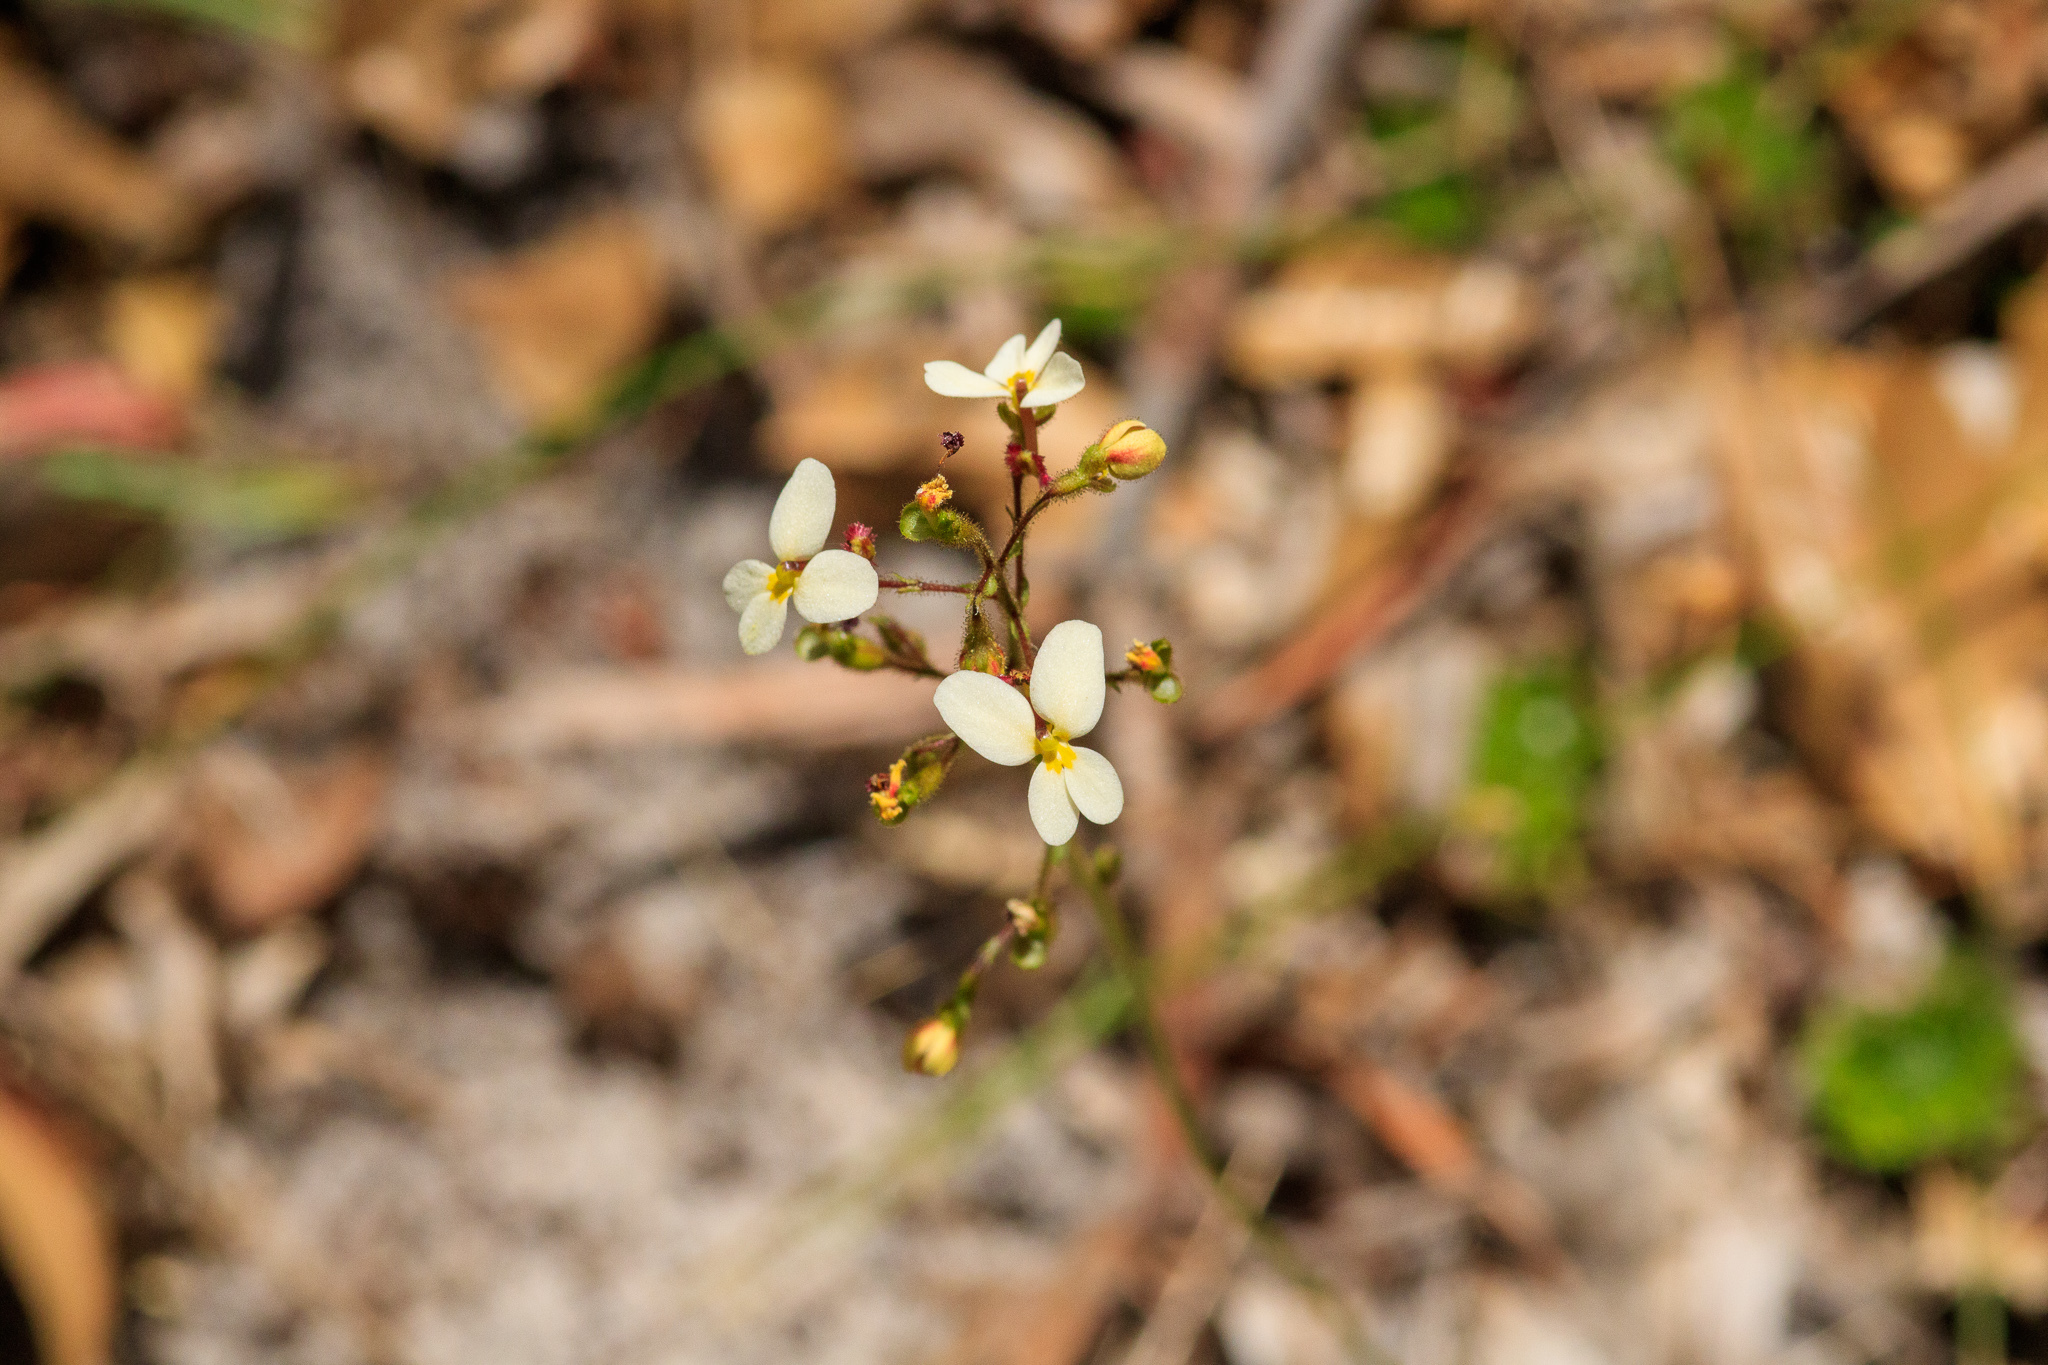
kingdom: Plantae
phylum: Tracheophyta
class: Magnoliopsida
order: Asterales
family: Stylidiaceae
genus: Stylidium
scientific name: Stylidium piliferum
